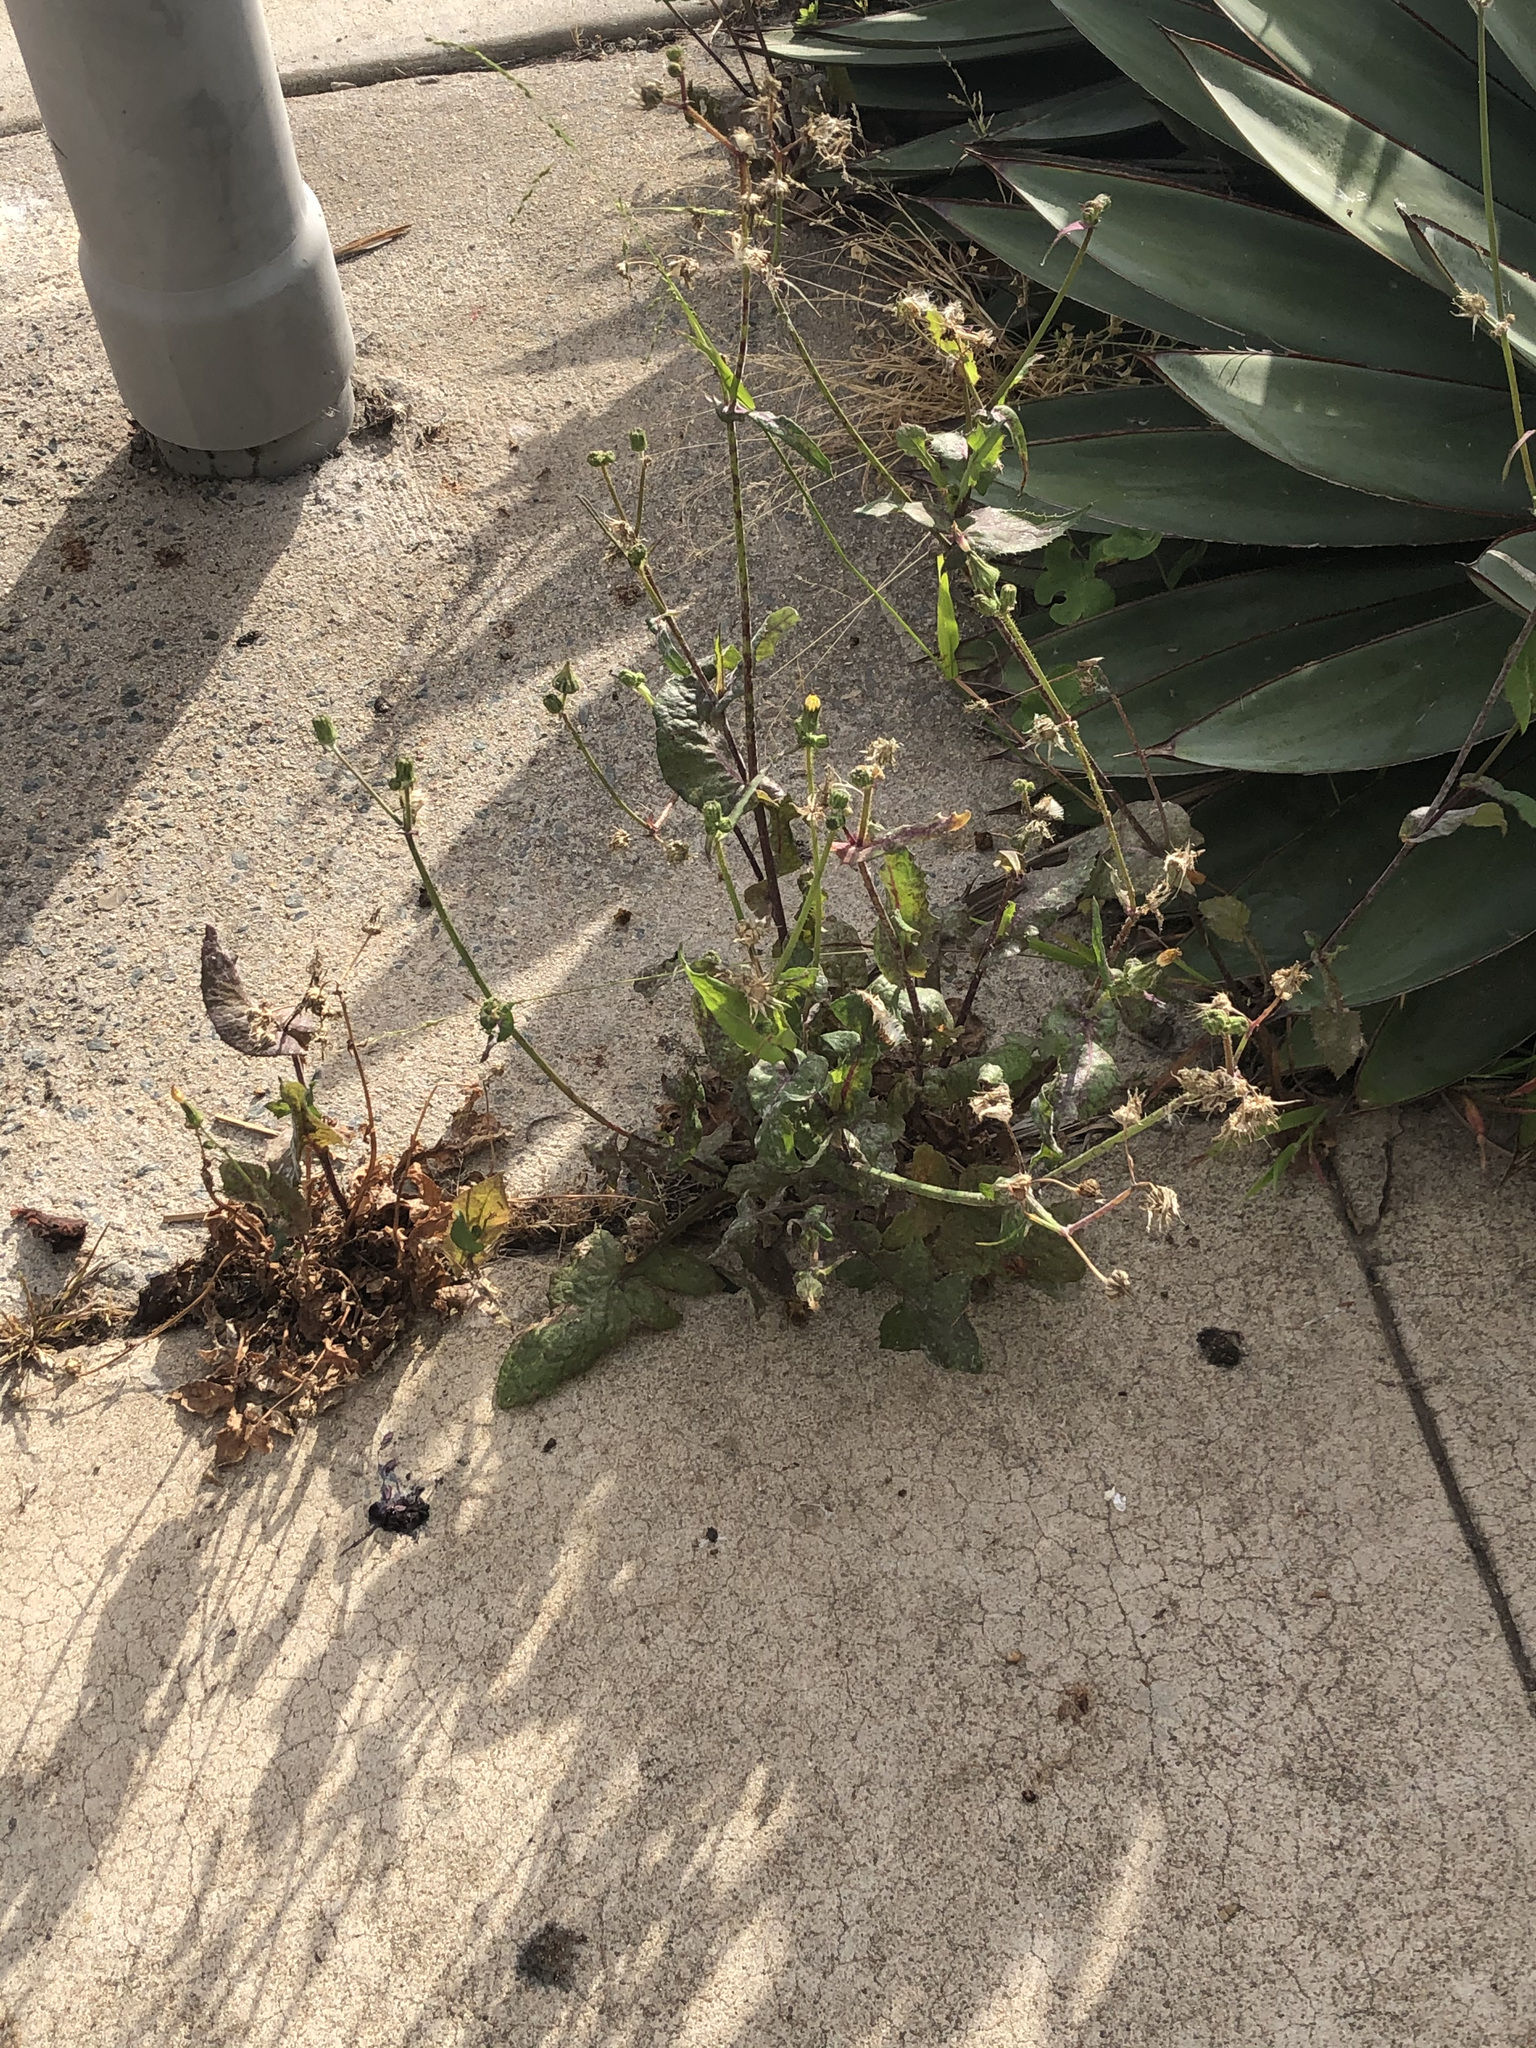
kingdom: Plantae
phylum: Tracheophyta
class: Magnoliopsida
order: Asterales
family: Asteraceae
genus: Sonchus
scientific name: Sonchus oleraceus
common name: Common sowthistle
